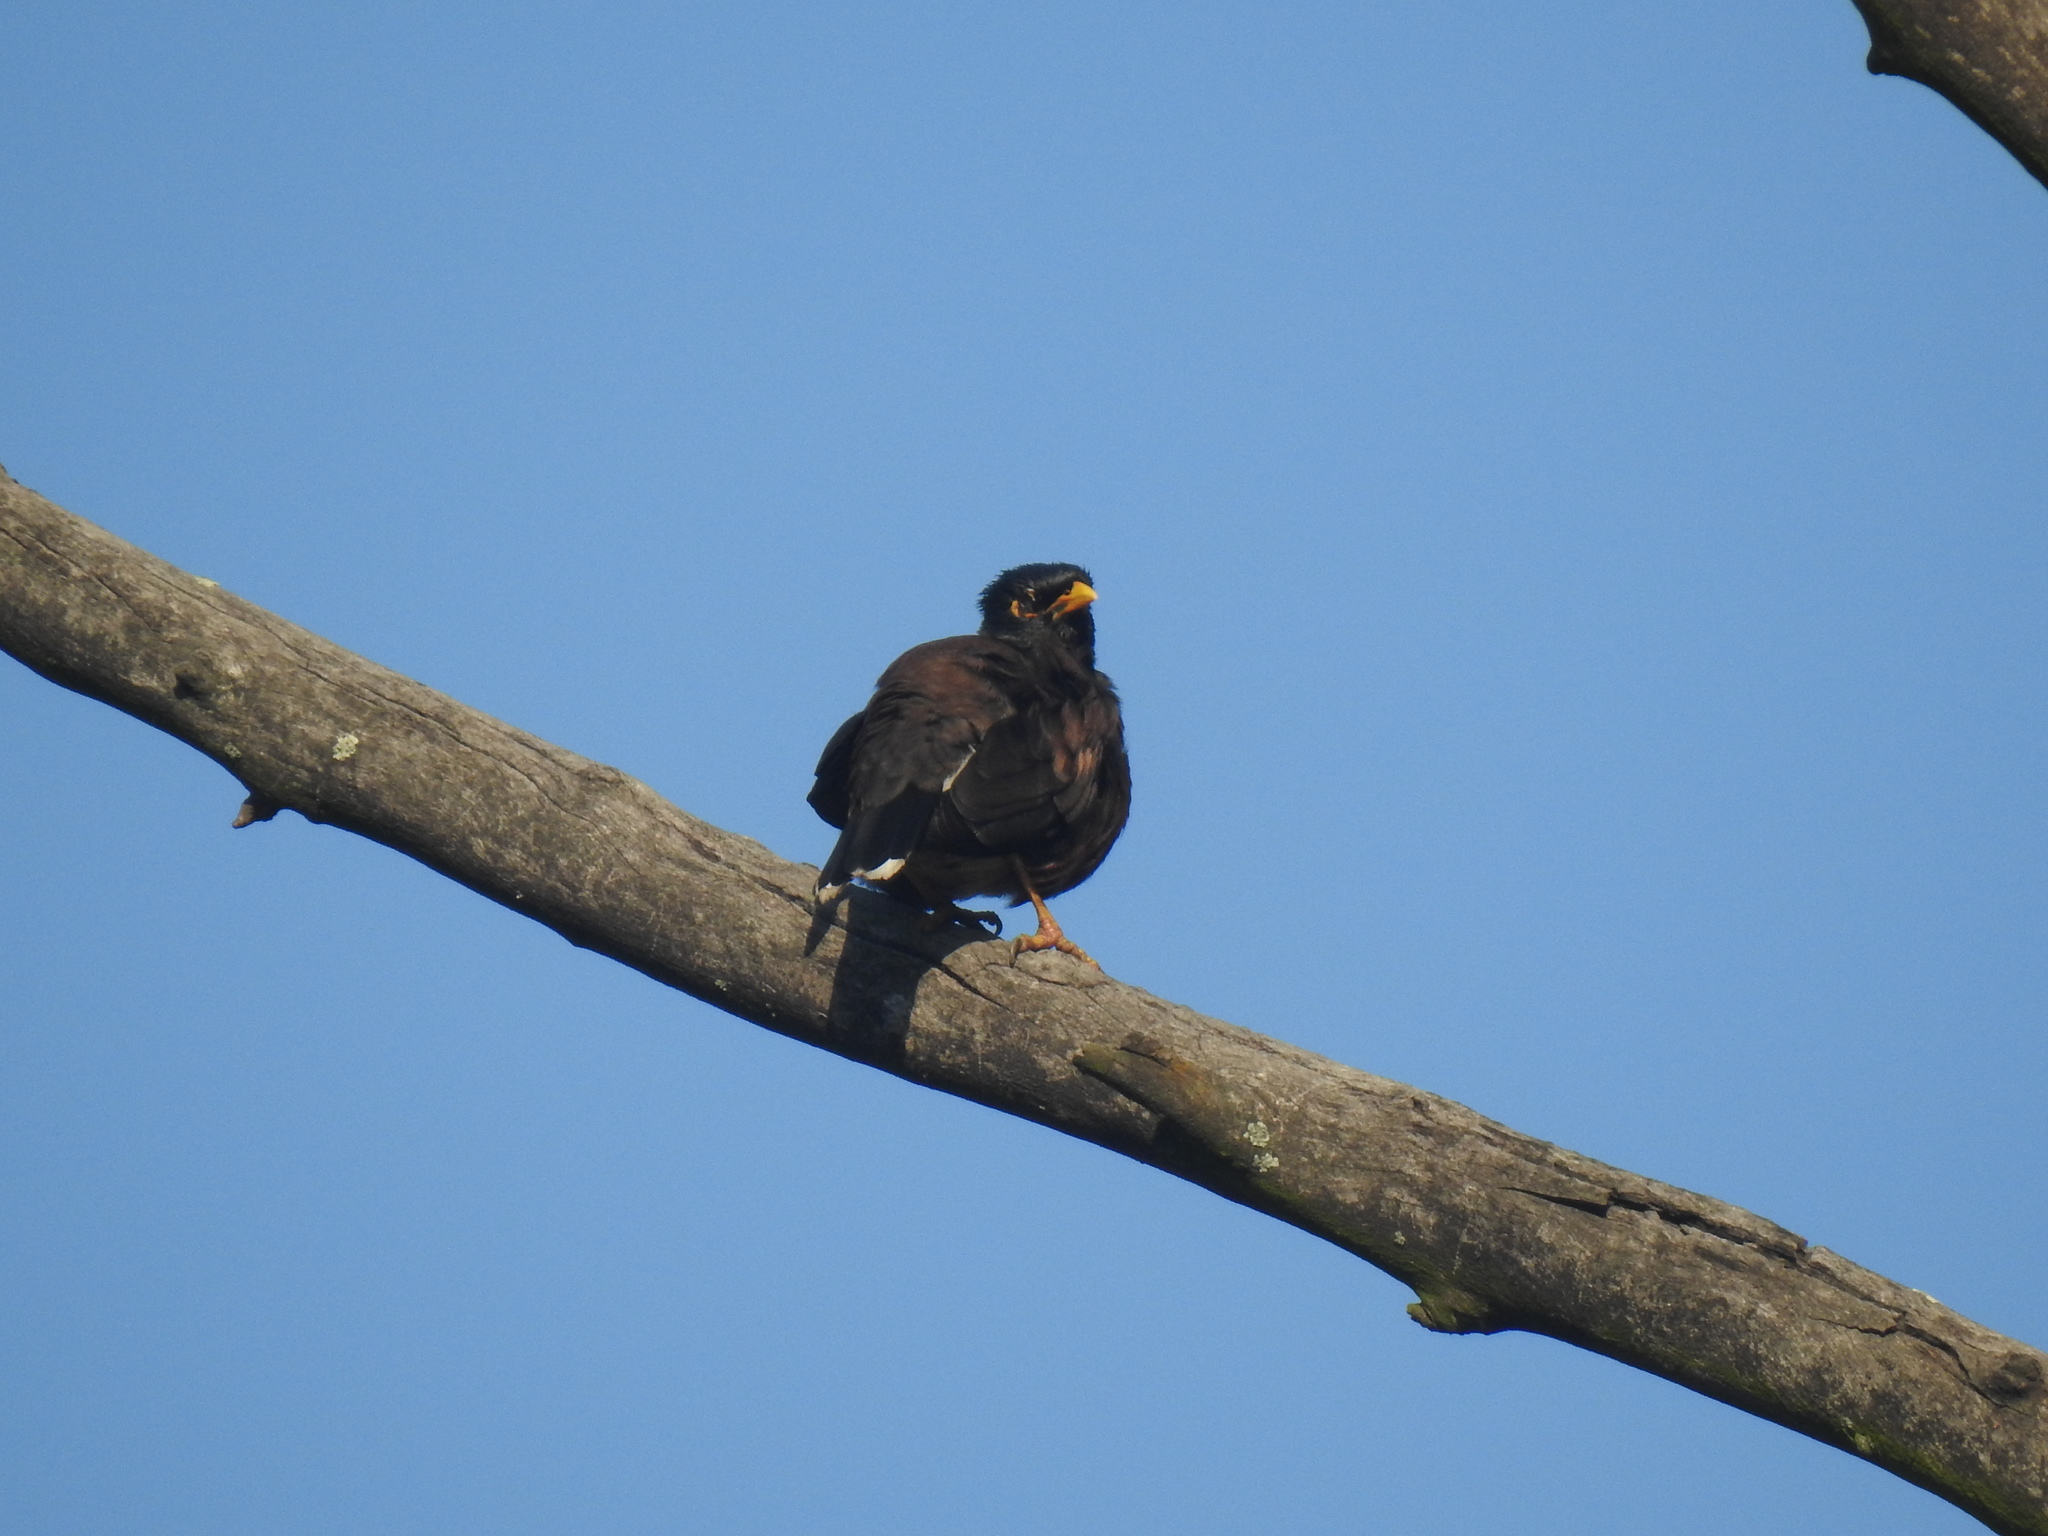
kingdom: Animalia
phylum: Chordata
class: Aves
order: Passeriformes
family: Sturnidae
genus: Acridotheres
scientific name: Acridotheres tristis
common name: Common myna
